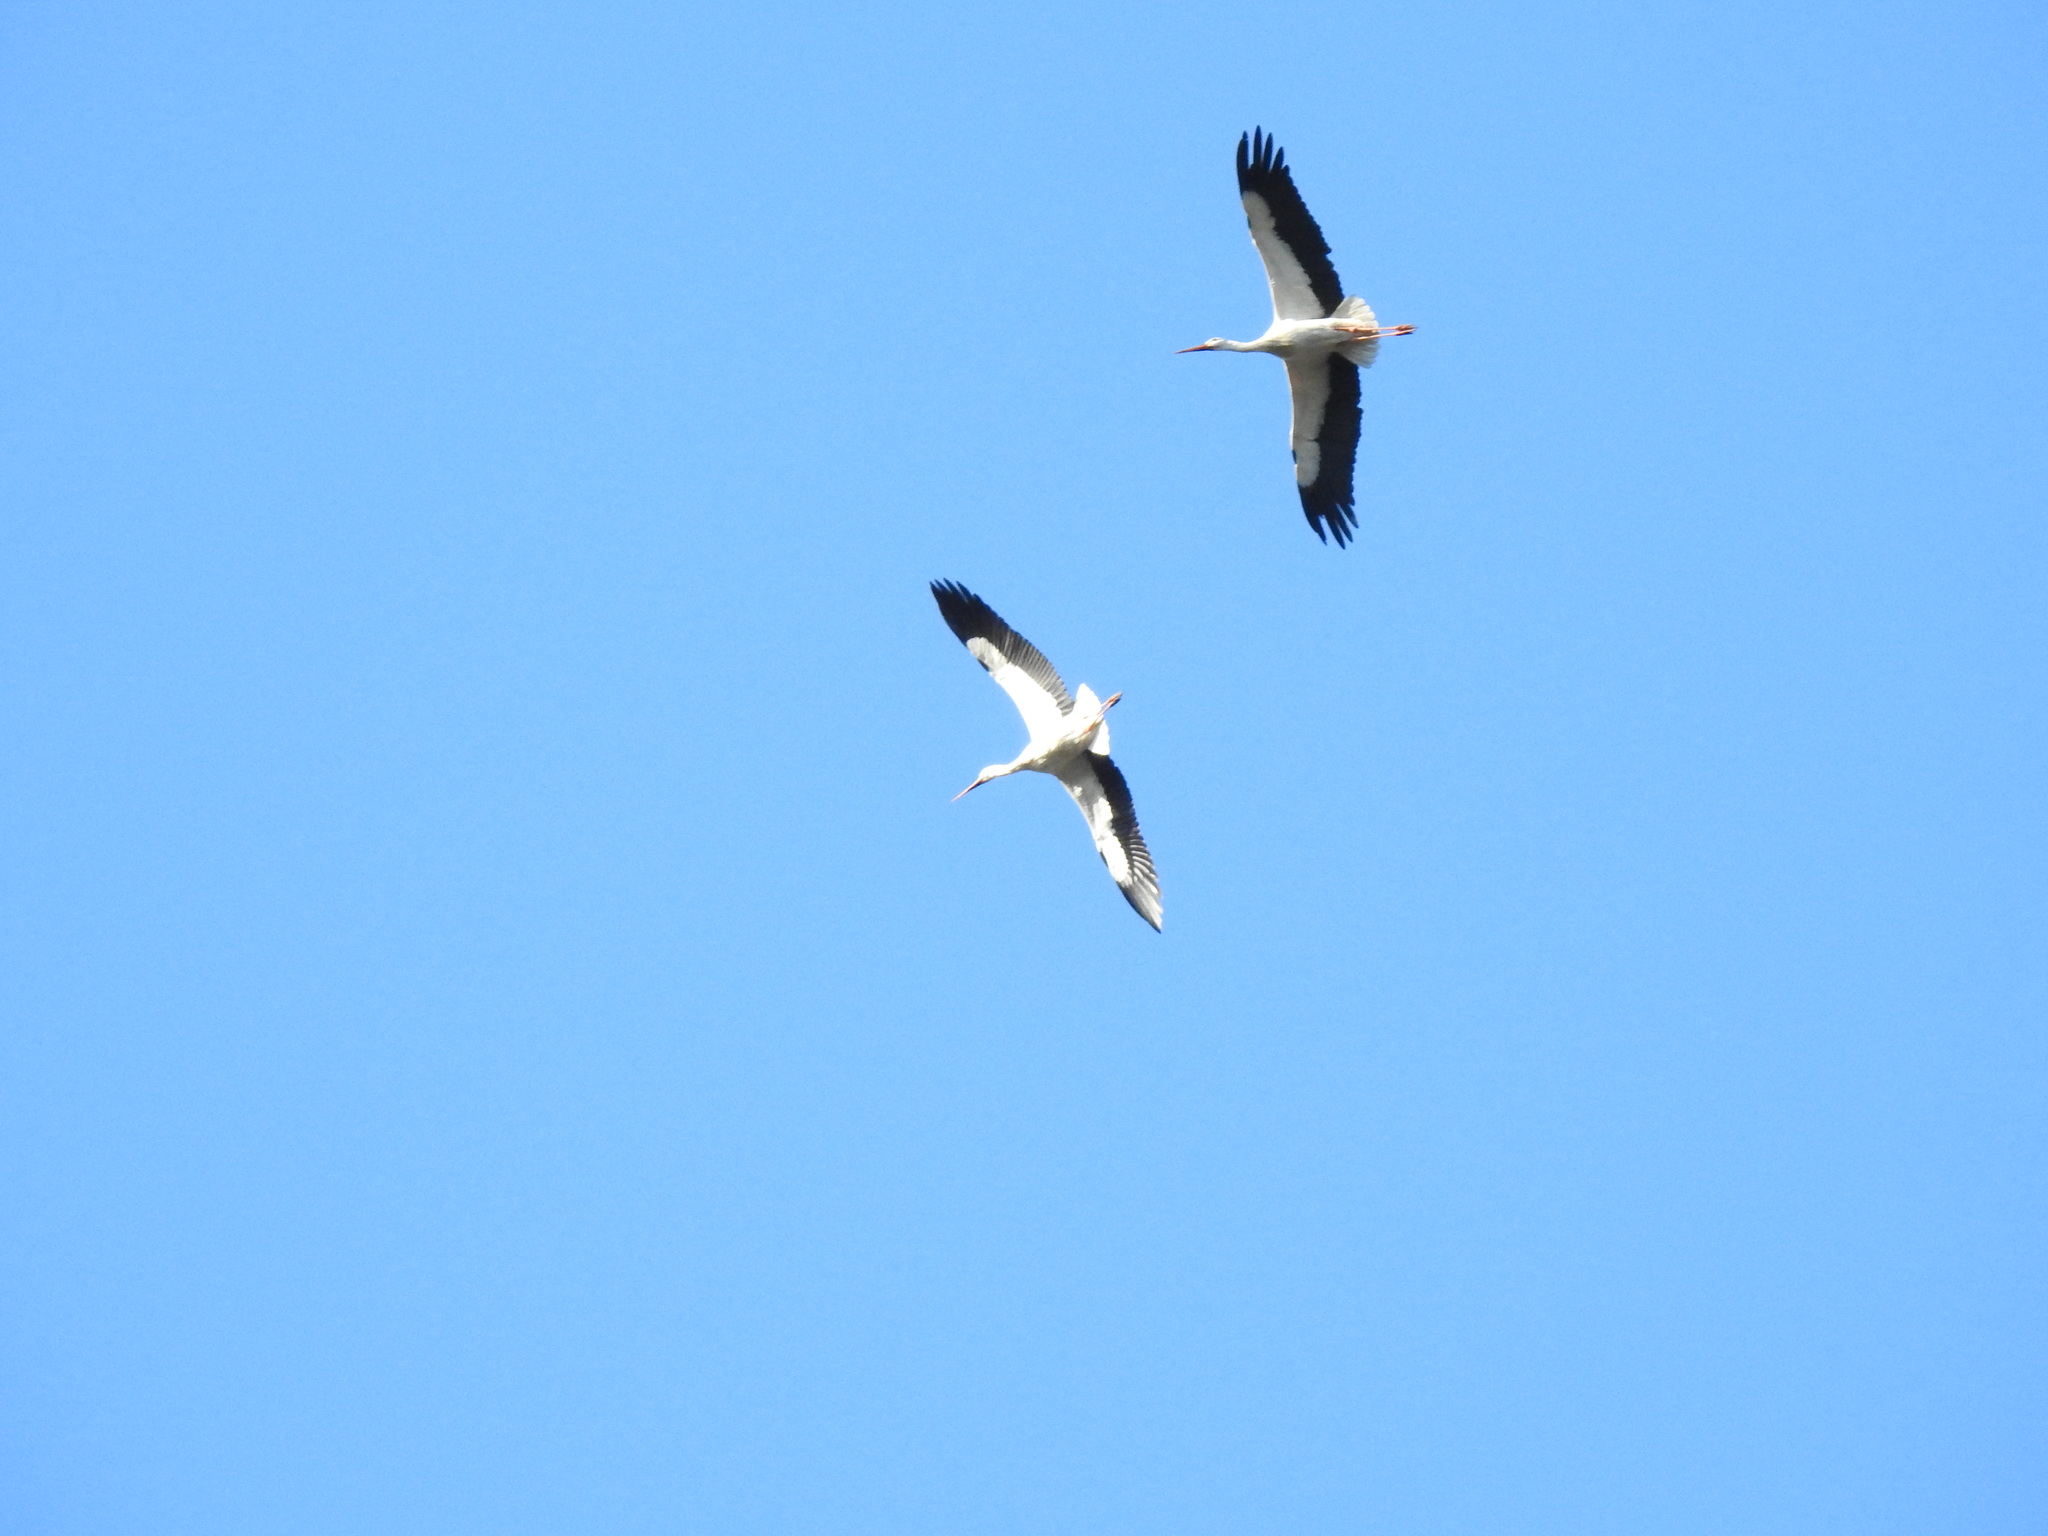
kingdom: Animalia
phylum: Chordata
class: Aves
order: Ciconiiformes
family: Ciconiidae
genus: Ciconia
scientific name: Ciconia ciconia
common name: White stork
